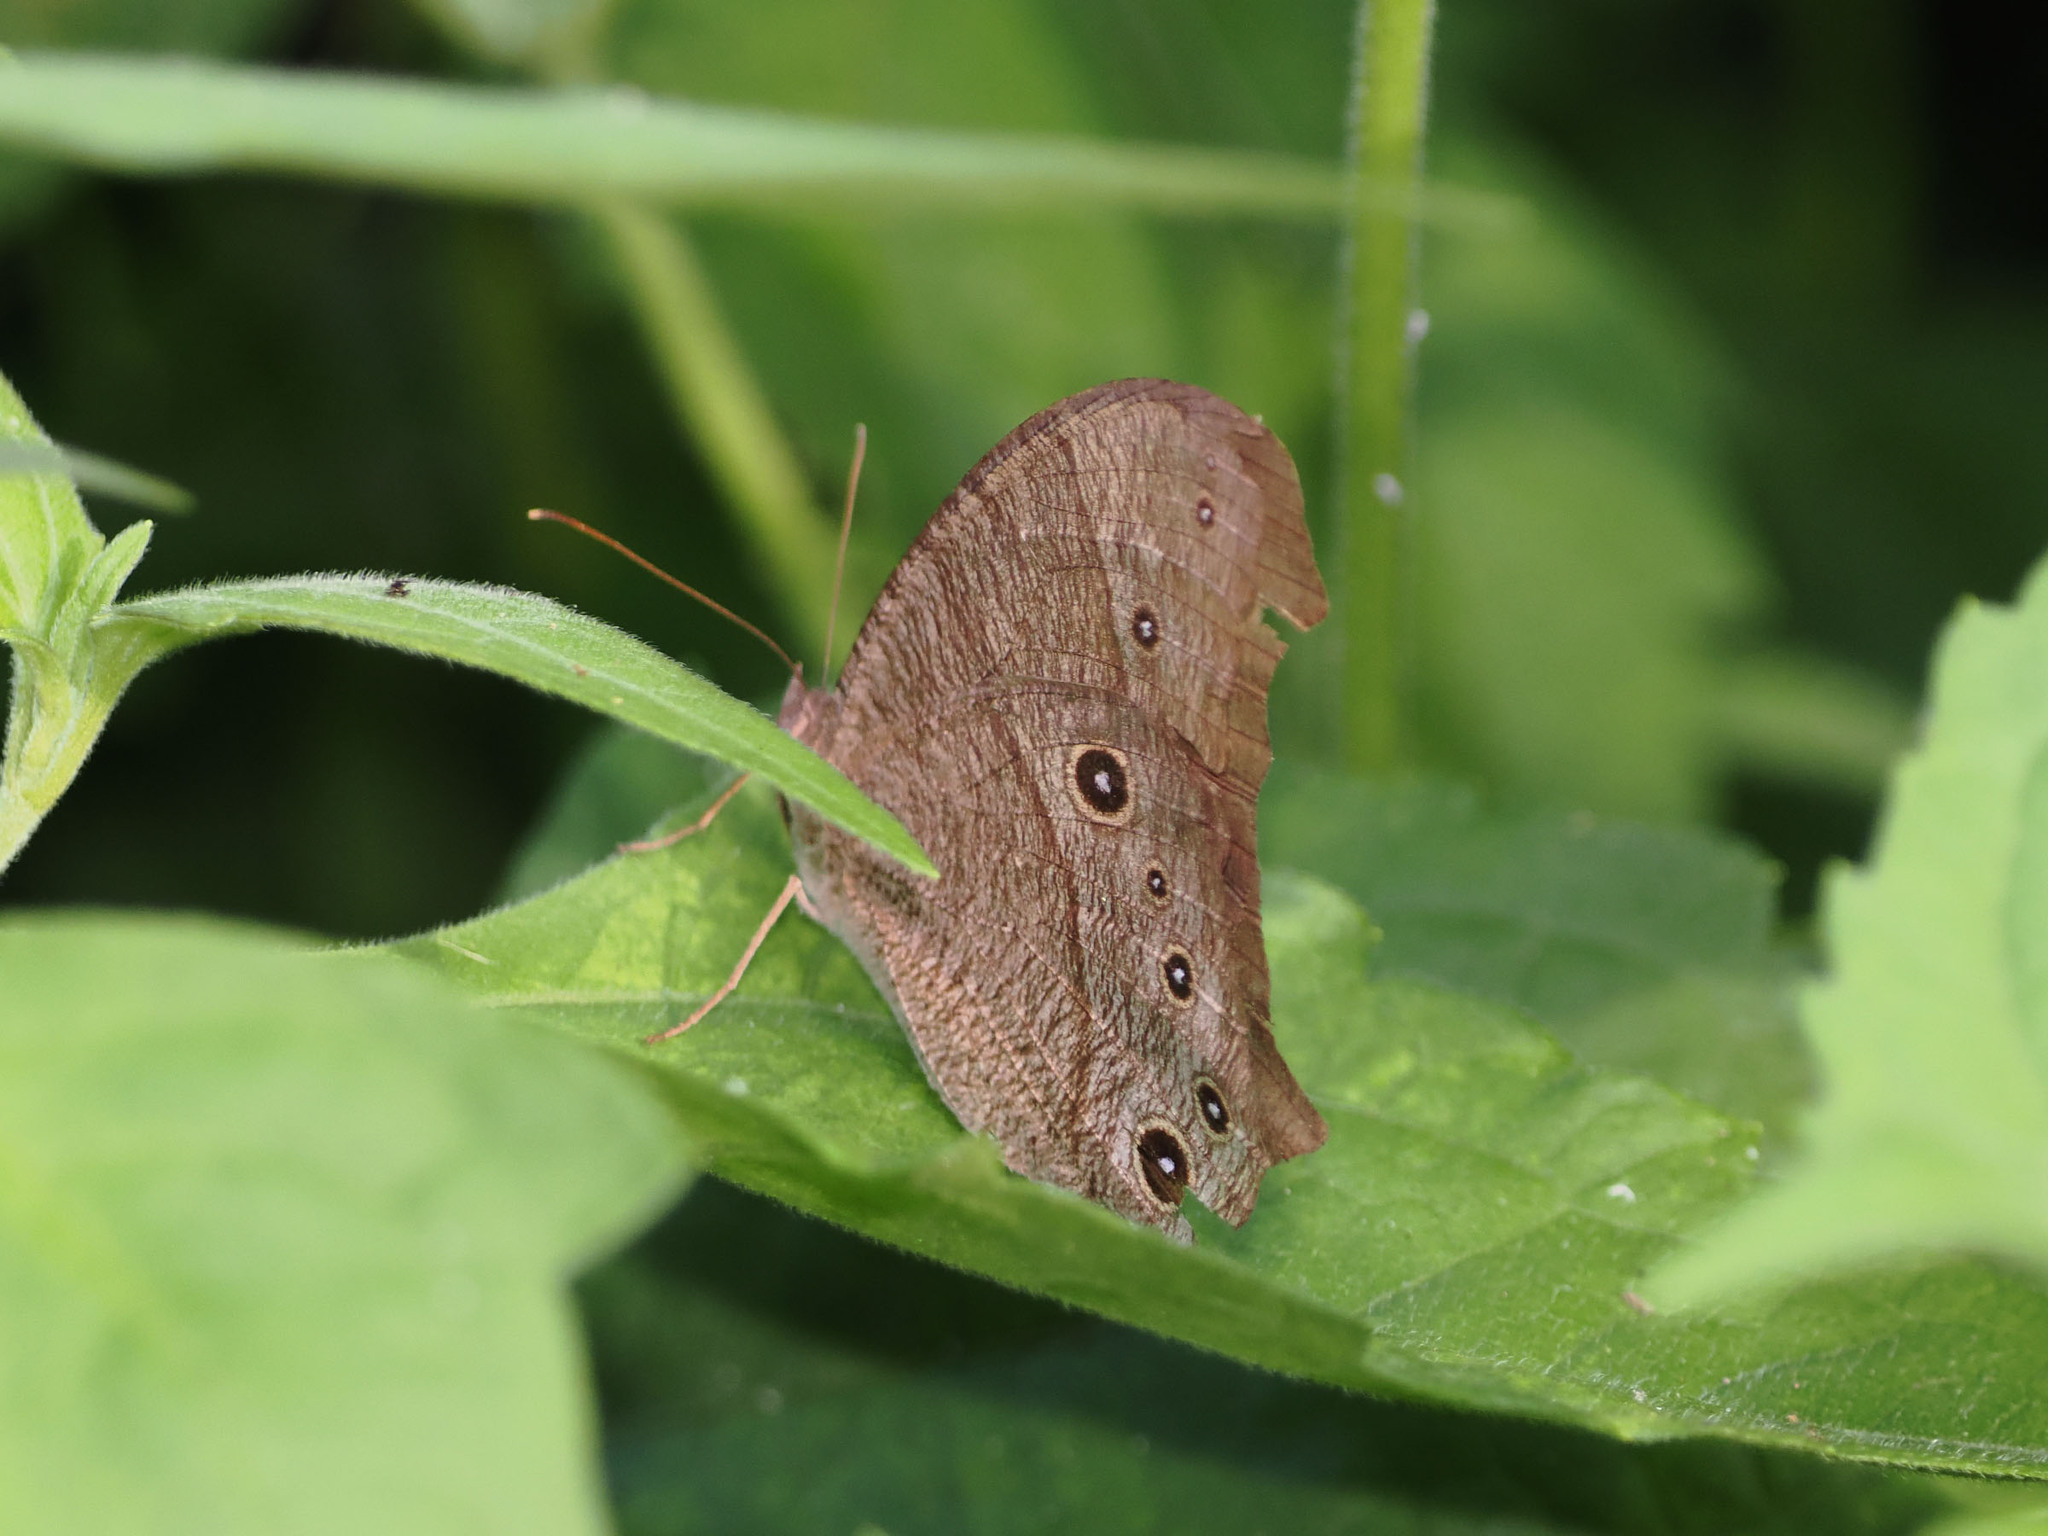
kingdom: Animalia
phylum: Arthropoda
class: Insecta
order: Lepidoptera
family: Nymphalidae
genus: Melanitis
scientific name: Melanitis leda
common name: Twilight brown
